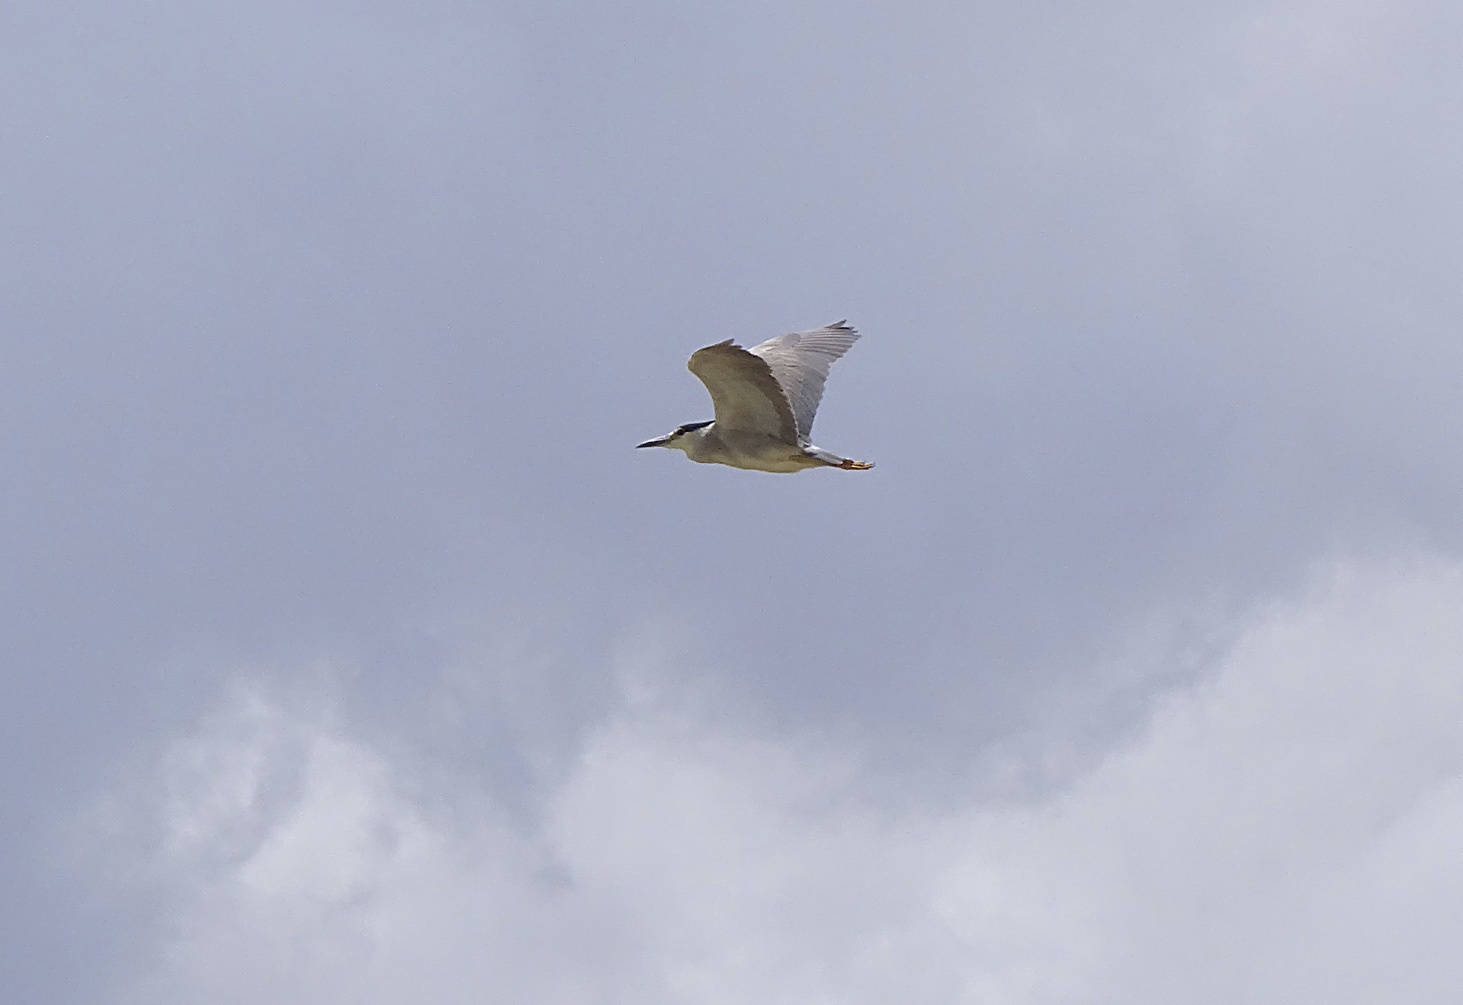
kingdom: Animalia
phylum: Chordata
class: Aves
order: Pelecaniformes
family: Ardeidae
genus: Nycticorax
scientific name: Nycticorax nycticorax
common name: Black-crowned night heron
